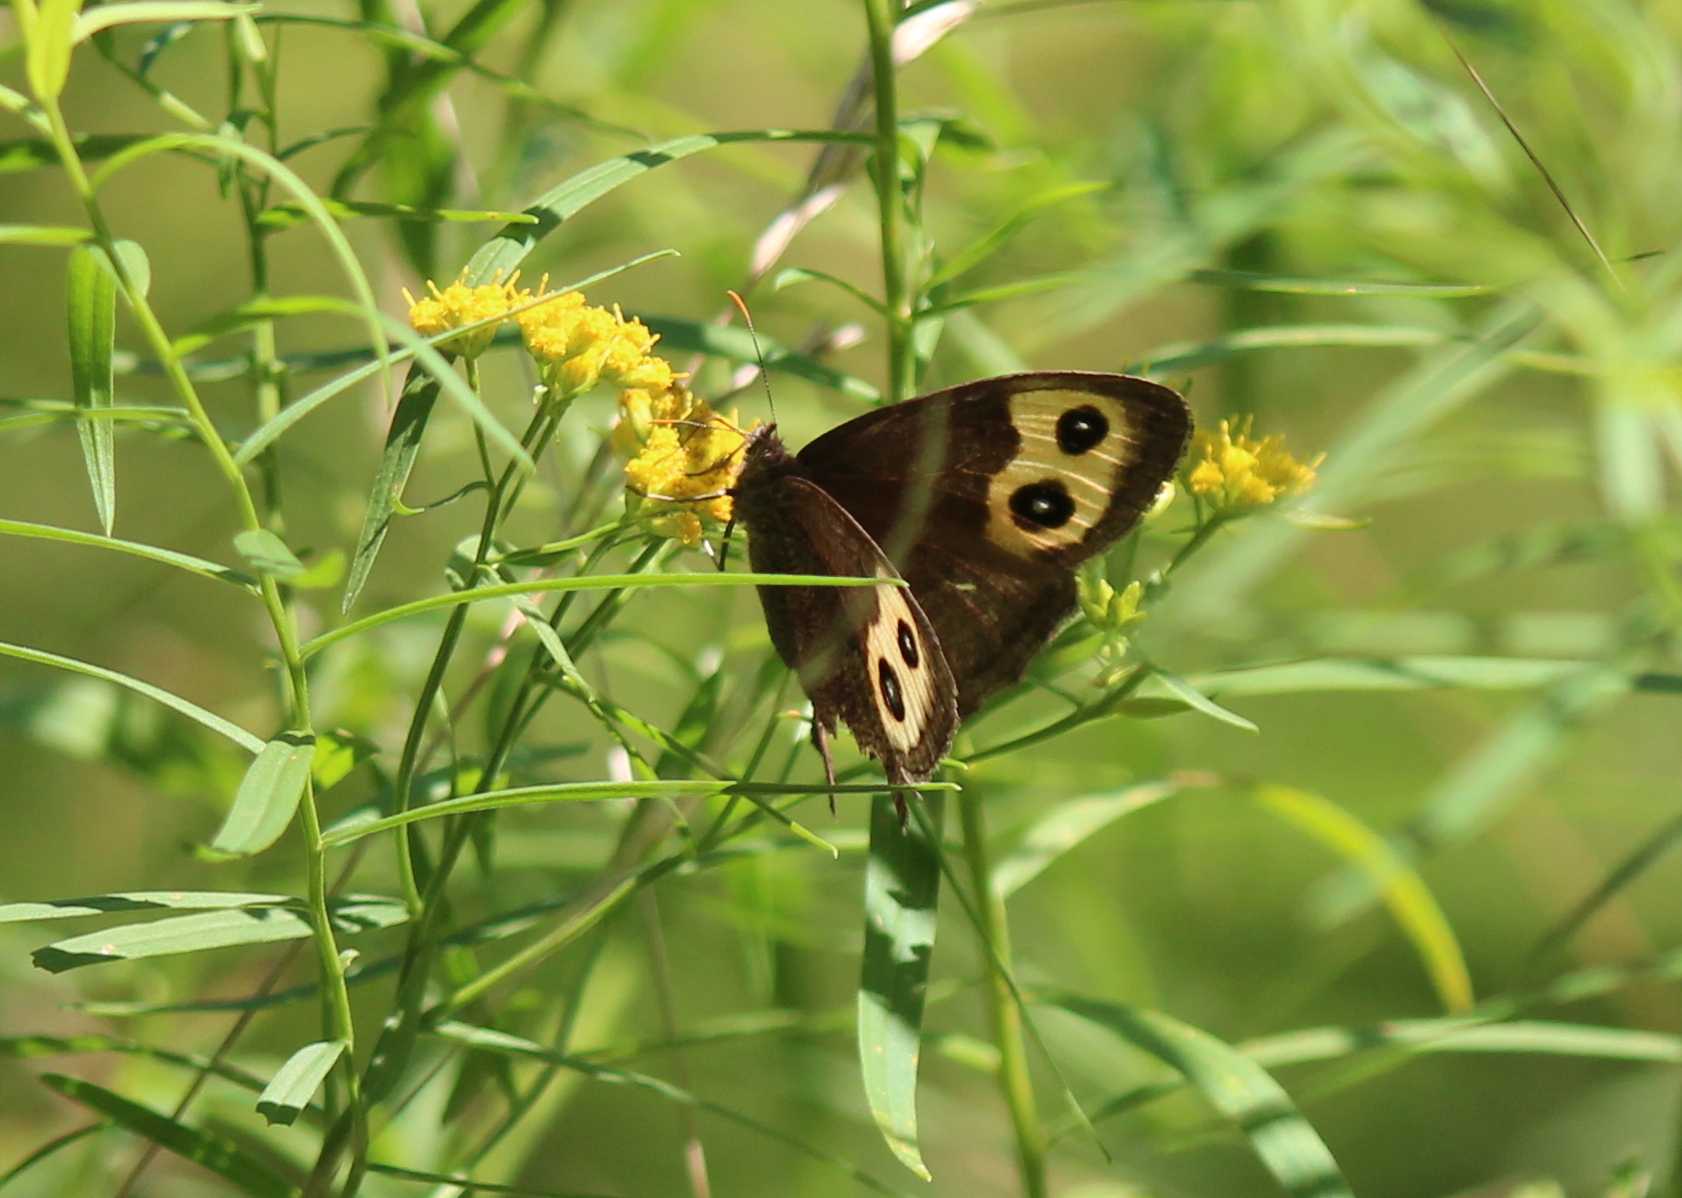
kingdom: Animalia
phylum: Arthropoda
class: Insecta
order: Lepidoptera
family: Nymphalidae
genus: Cercyonis
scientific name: Cercyonis pegala
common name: Common wood-nymph
